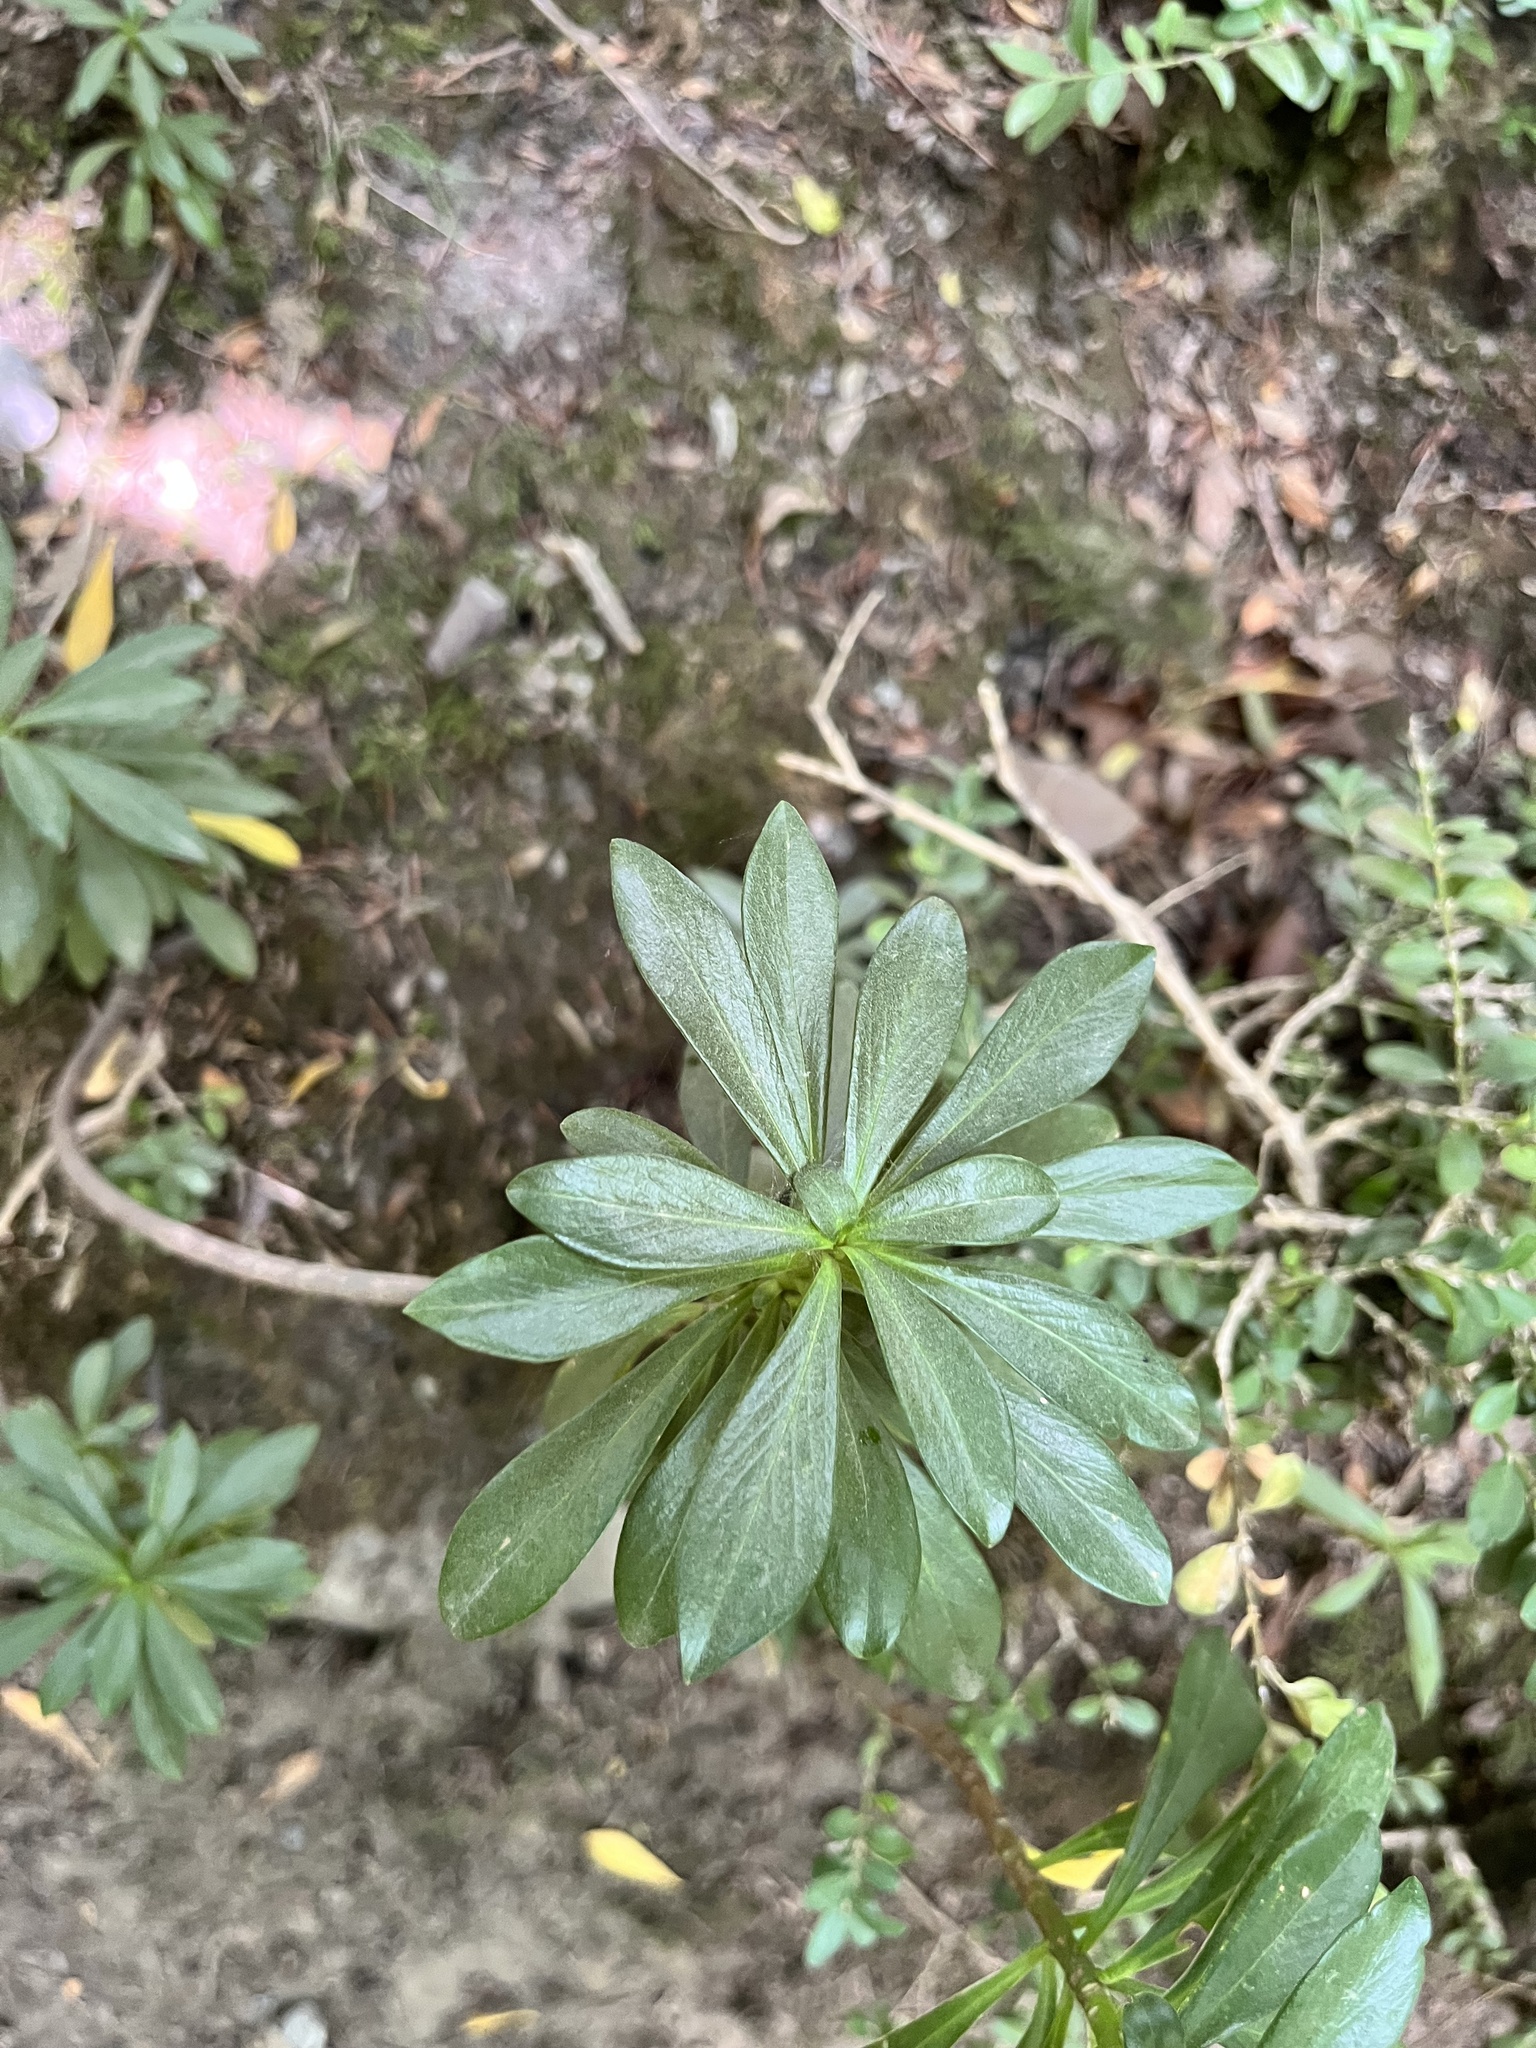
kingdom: Plantae
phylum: Tracheophyta
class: Magnoliopsida
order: Malvales
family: Thymelaeaceae
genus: Daphne
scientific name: Daphne laureola
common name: Spurge-laurel
